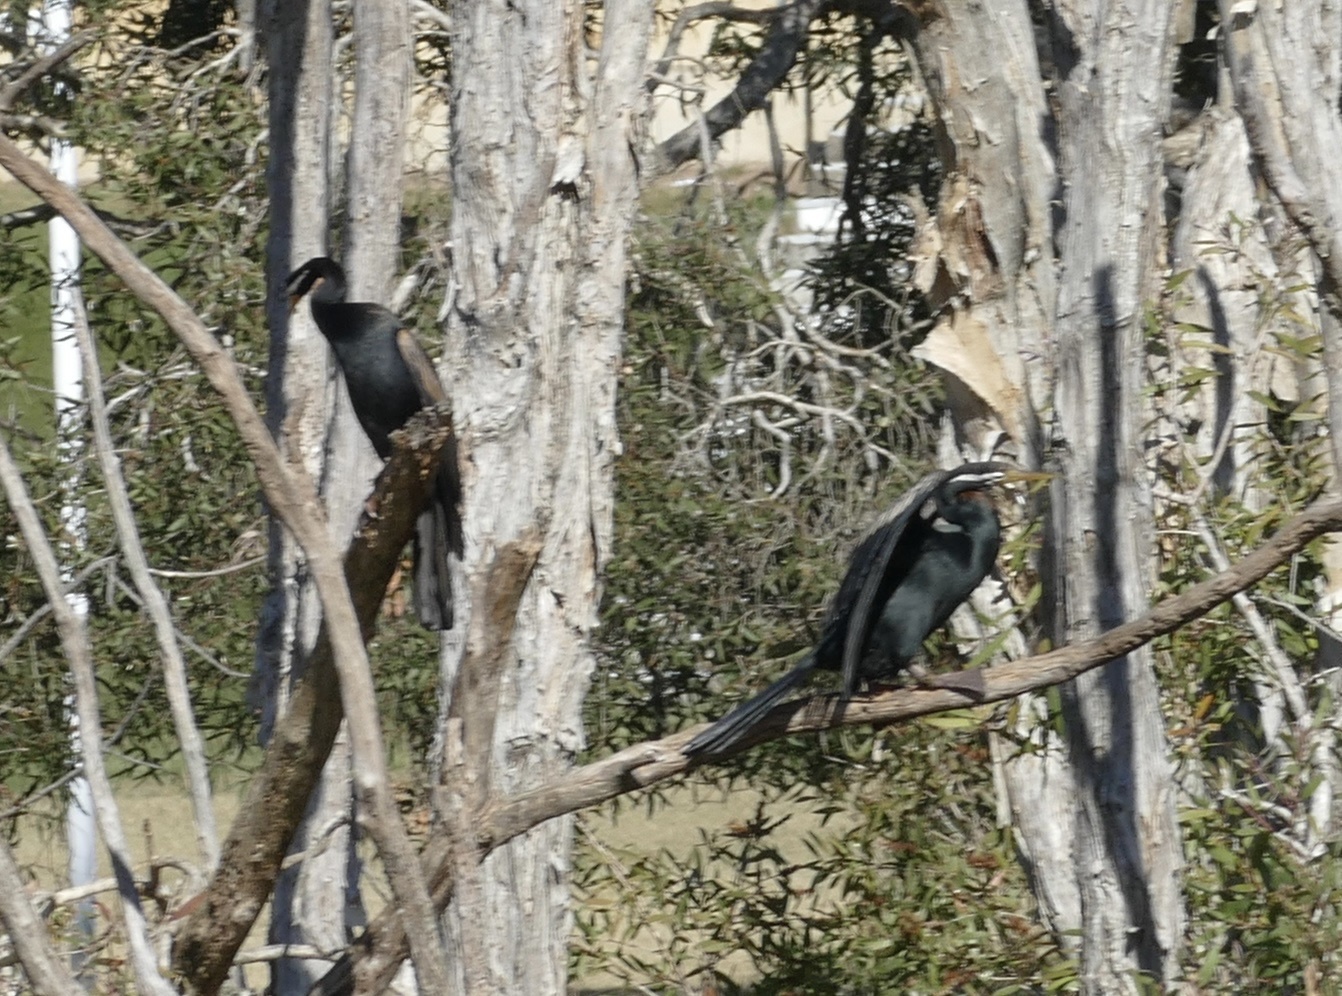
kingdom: Animalia
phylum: Chordata
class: Aves
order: Suliformes
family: Anhingidae
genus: Anhinga
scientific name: Anhinga novaehollandiae
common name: Australasian darter
